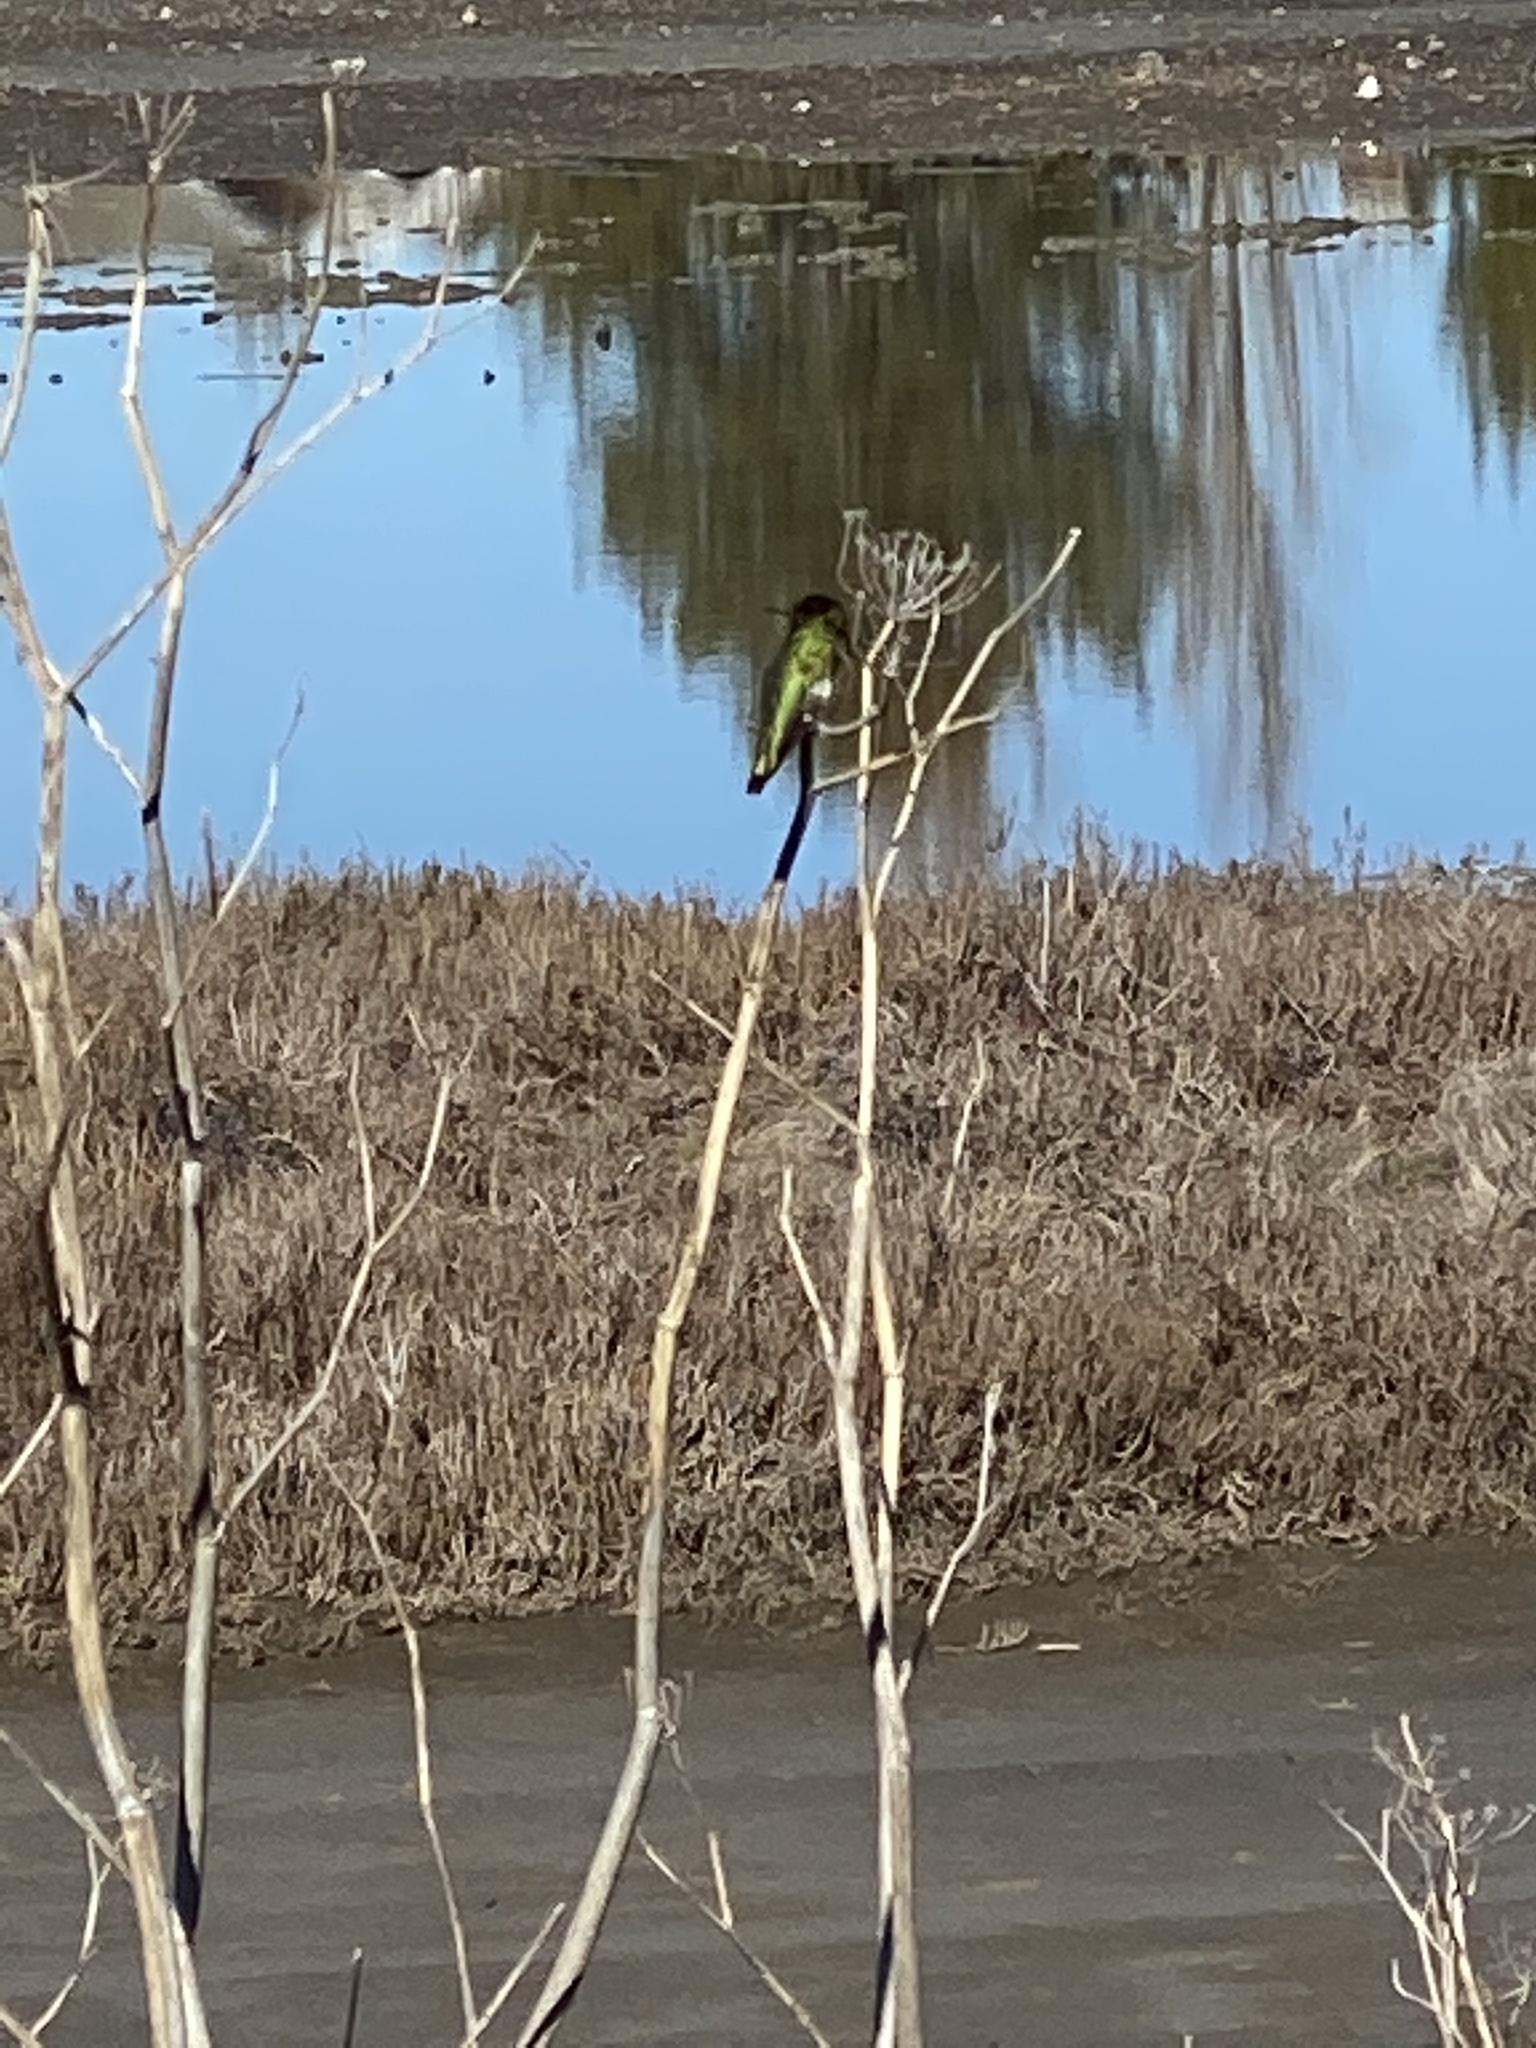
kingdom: Animalia
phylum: Chordata
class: Aves
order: Apodiformes
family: Trochilidae
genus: Calypte
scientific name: Calypte anna
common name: Anna's hummingbird
